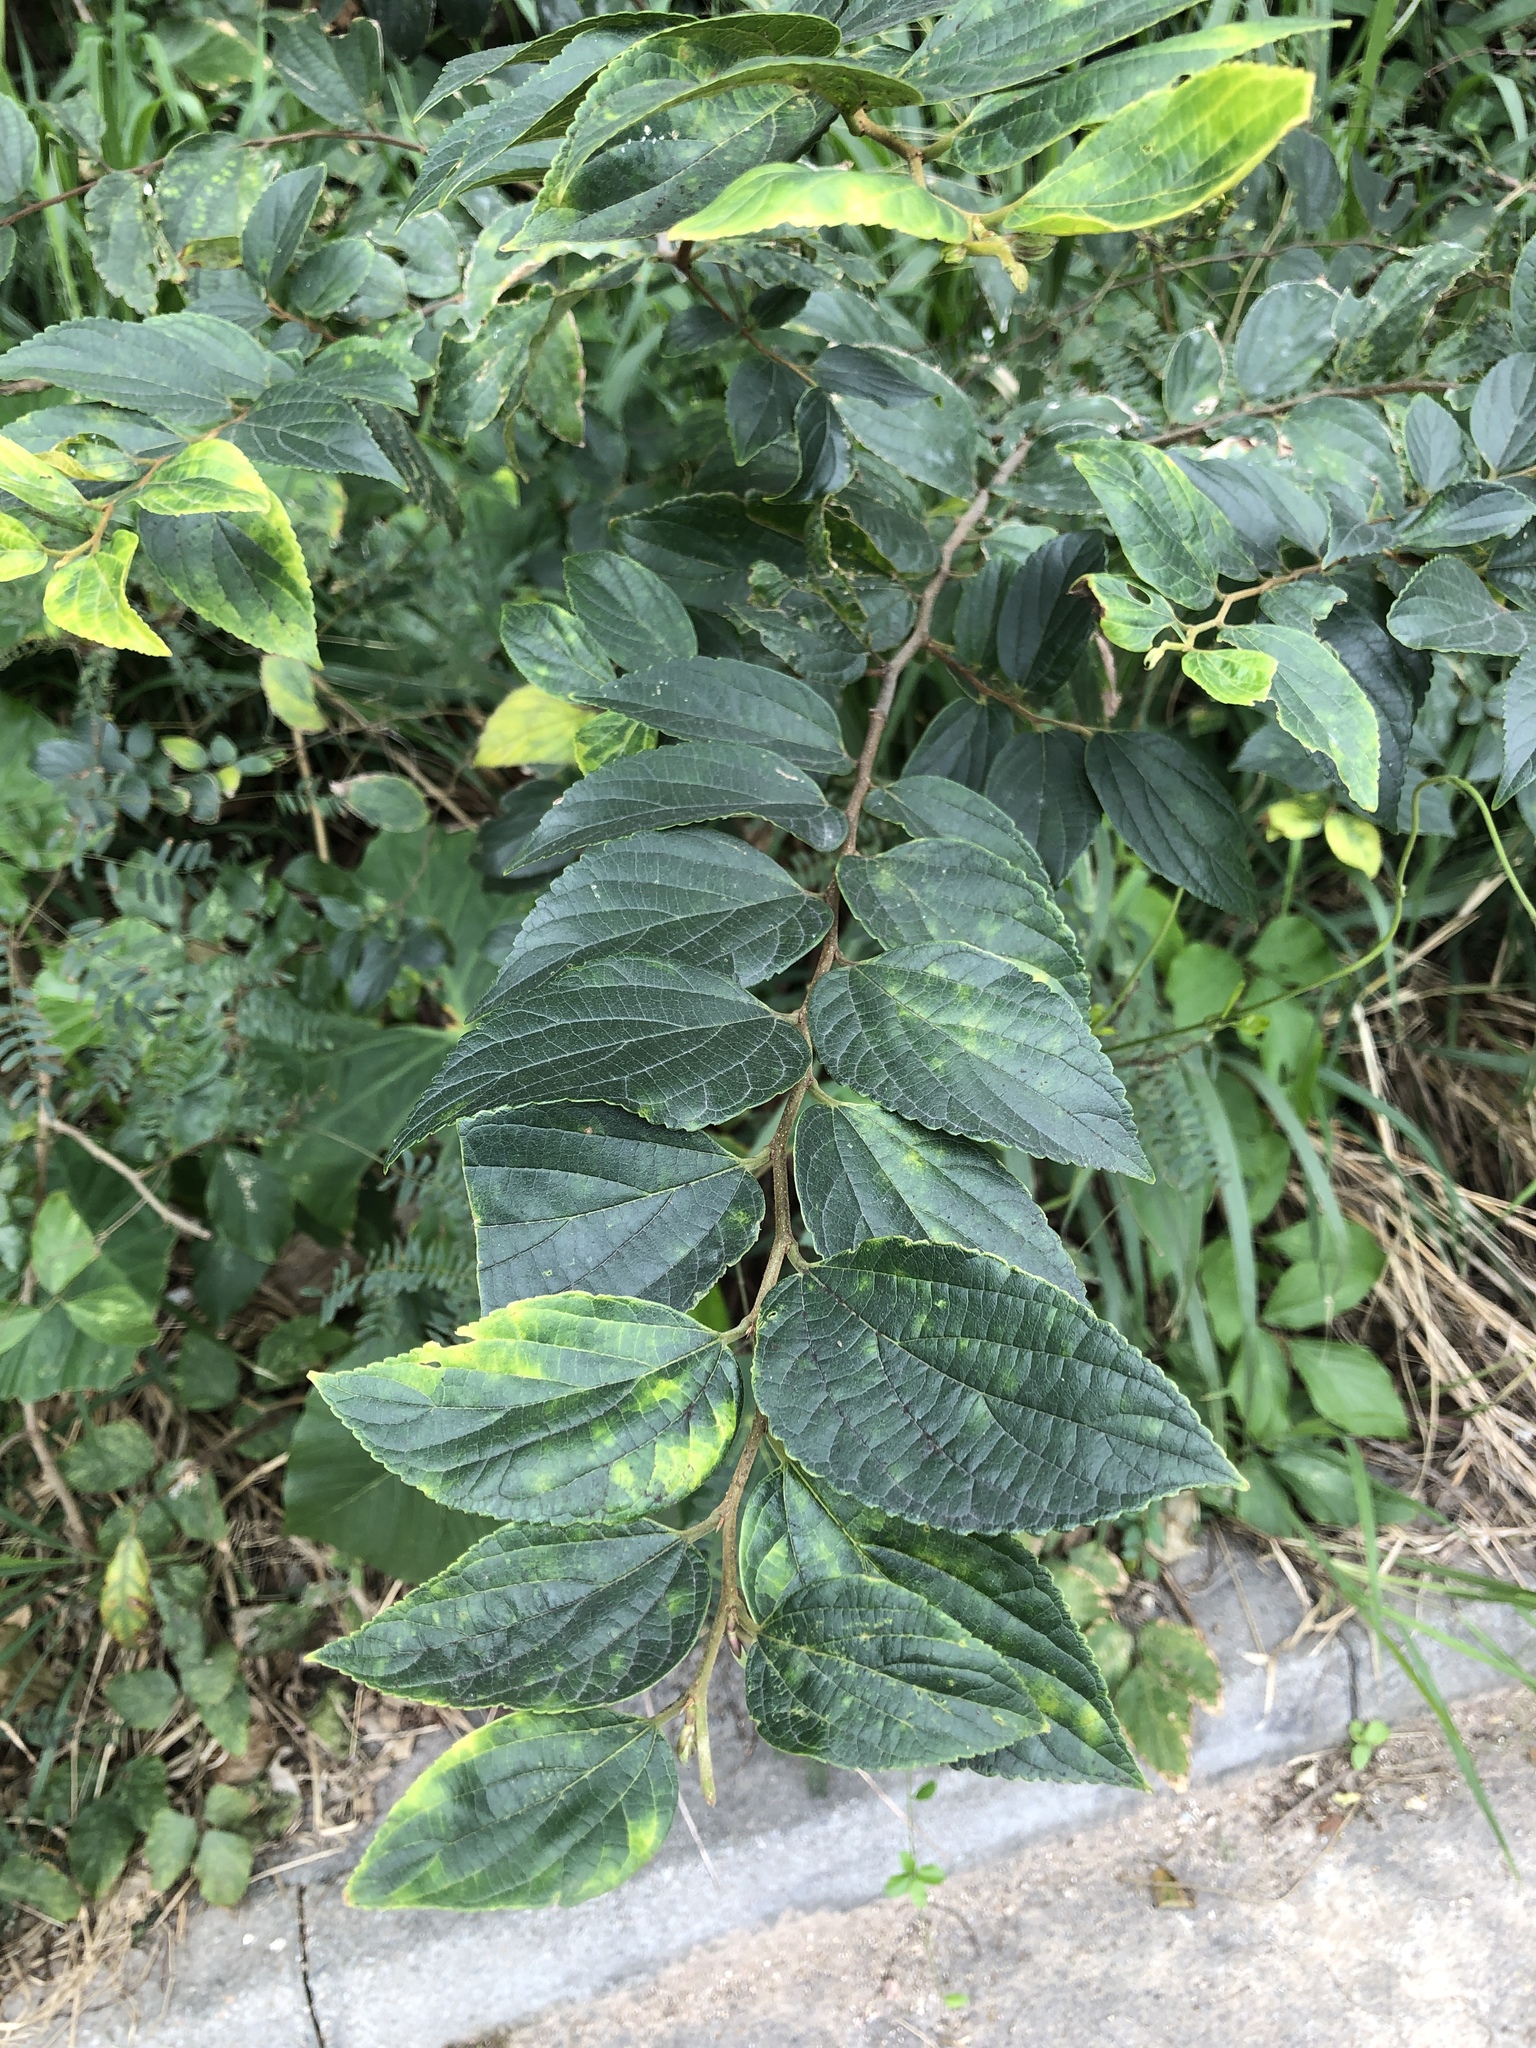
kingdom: Plantae
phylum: Tracheophyta
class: Magnoliopsida
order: Rosales
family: Cannabaceae
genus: Celtis
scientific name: Celtis sinensis
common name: Chinese hackberry
